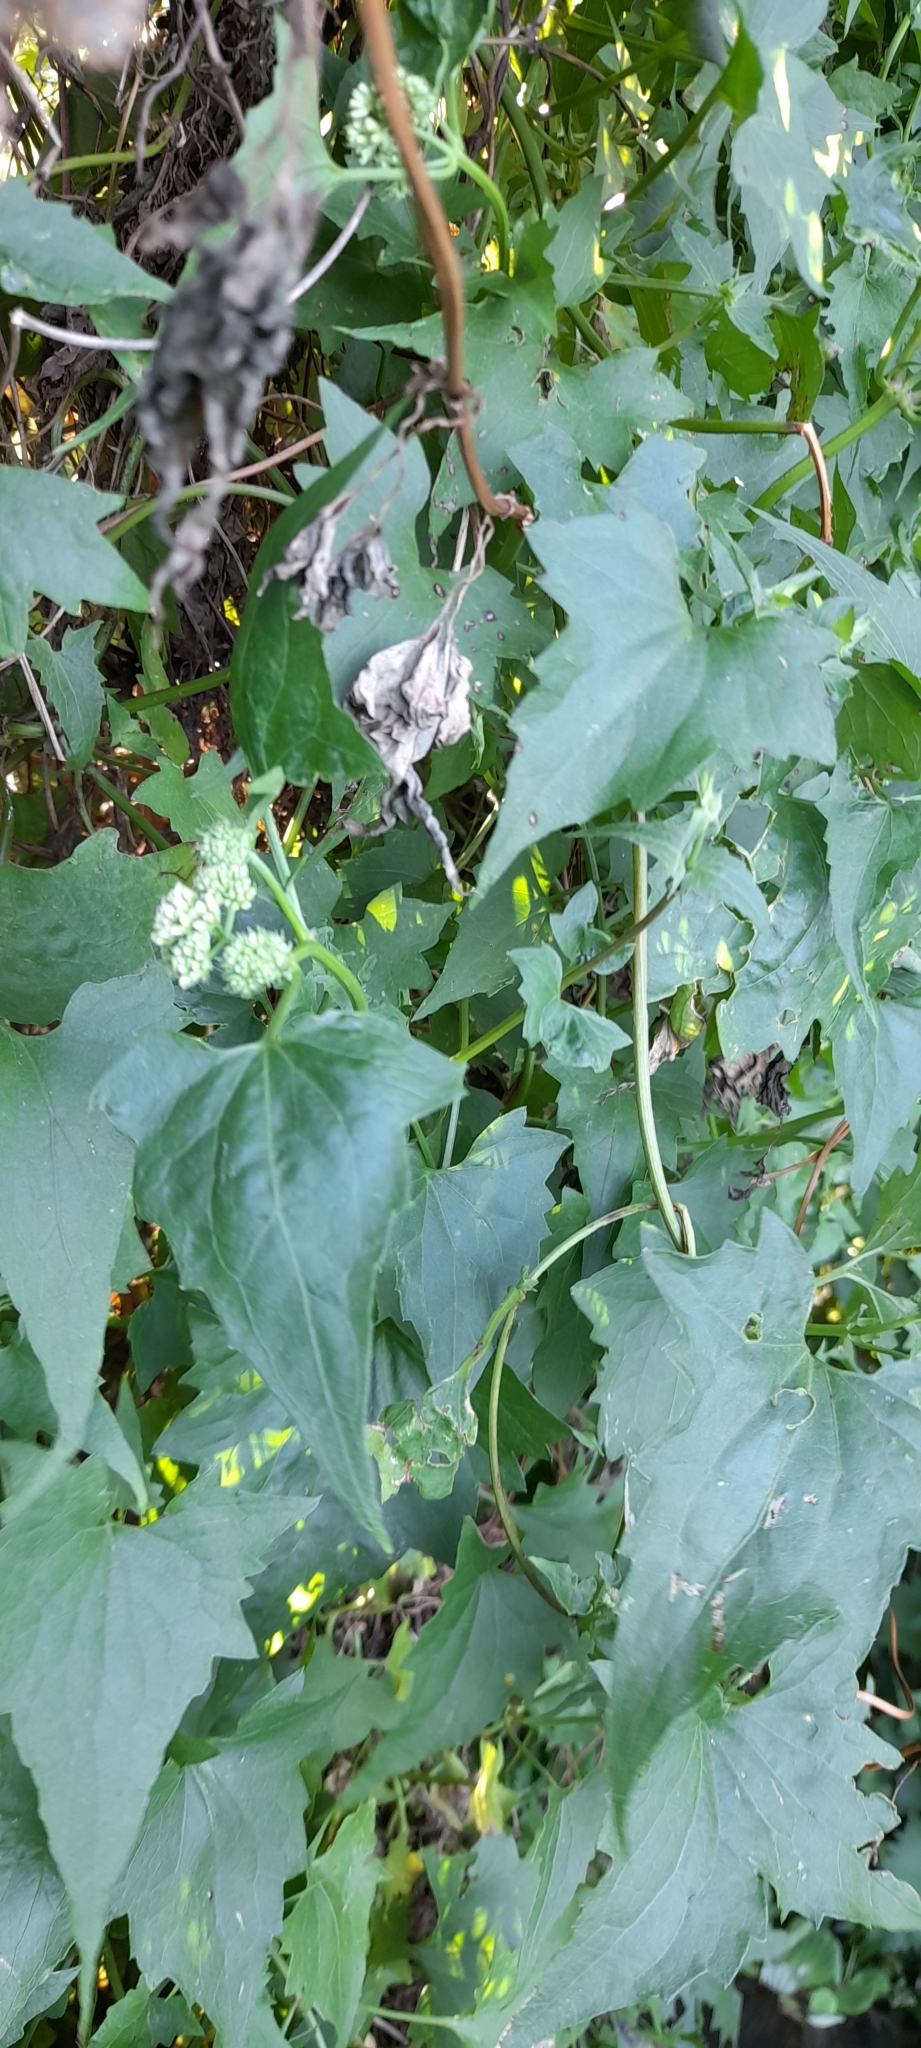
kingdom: Plantae
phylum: Tracheophyta
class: Magnoliopsida
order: Asterales
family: Asteraceae
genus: Mikania
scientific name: Mikania micrantha
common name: Mile-a-minute
